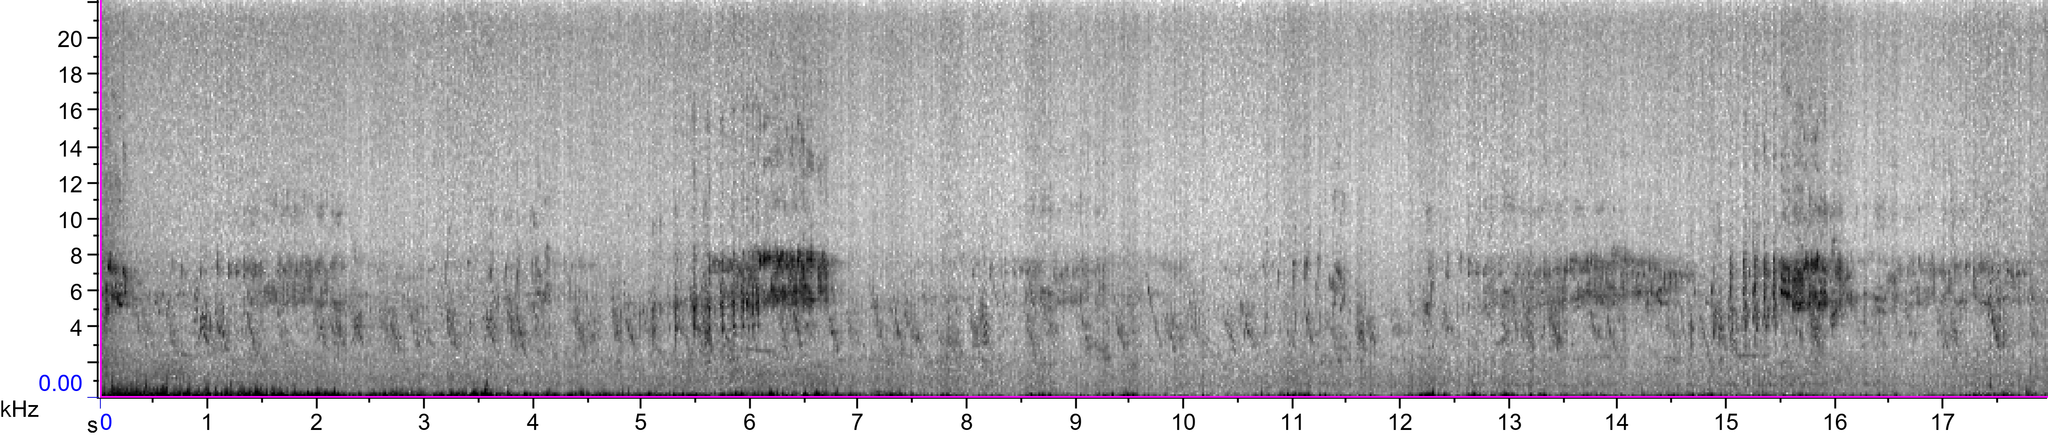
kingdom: Animalia
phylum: Chordata
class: Aves
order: Passeriformes
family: Emberizidae
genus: Emberiza
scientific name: Emberiza calandra
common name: Corn bunting
